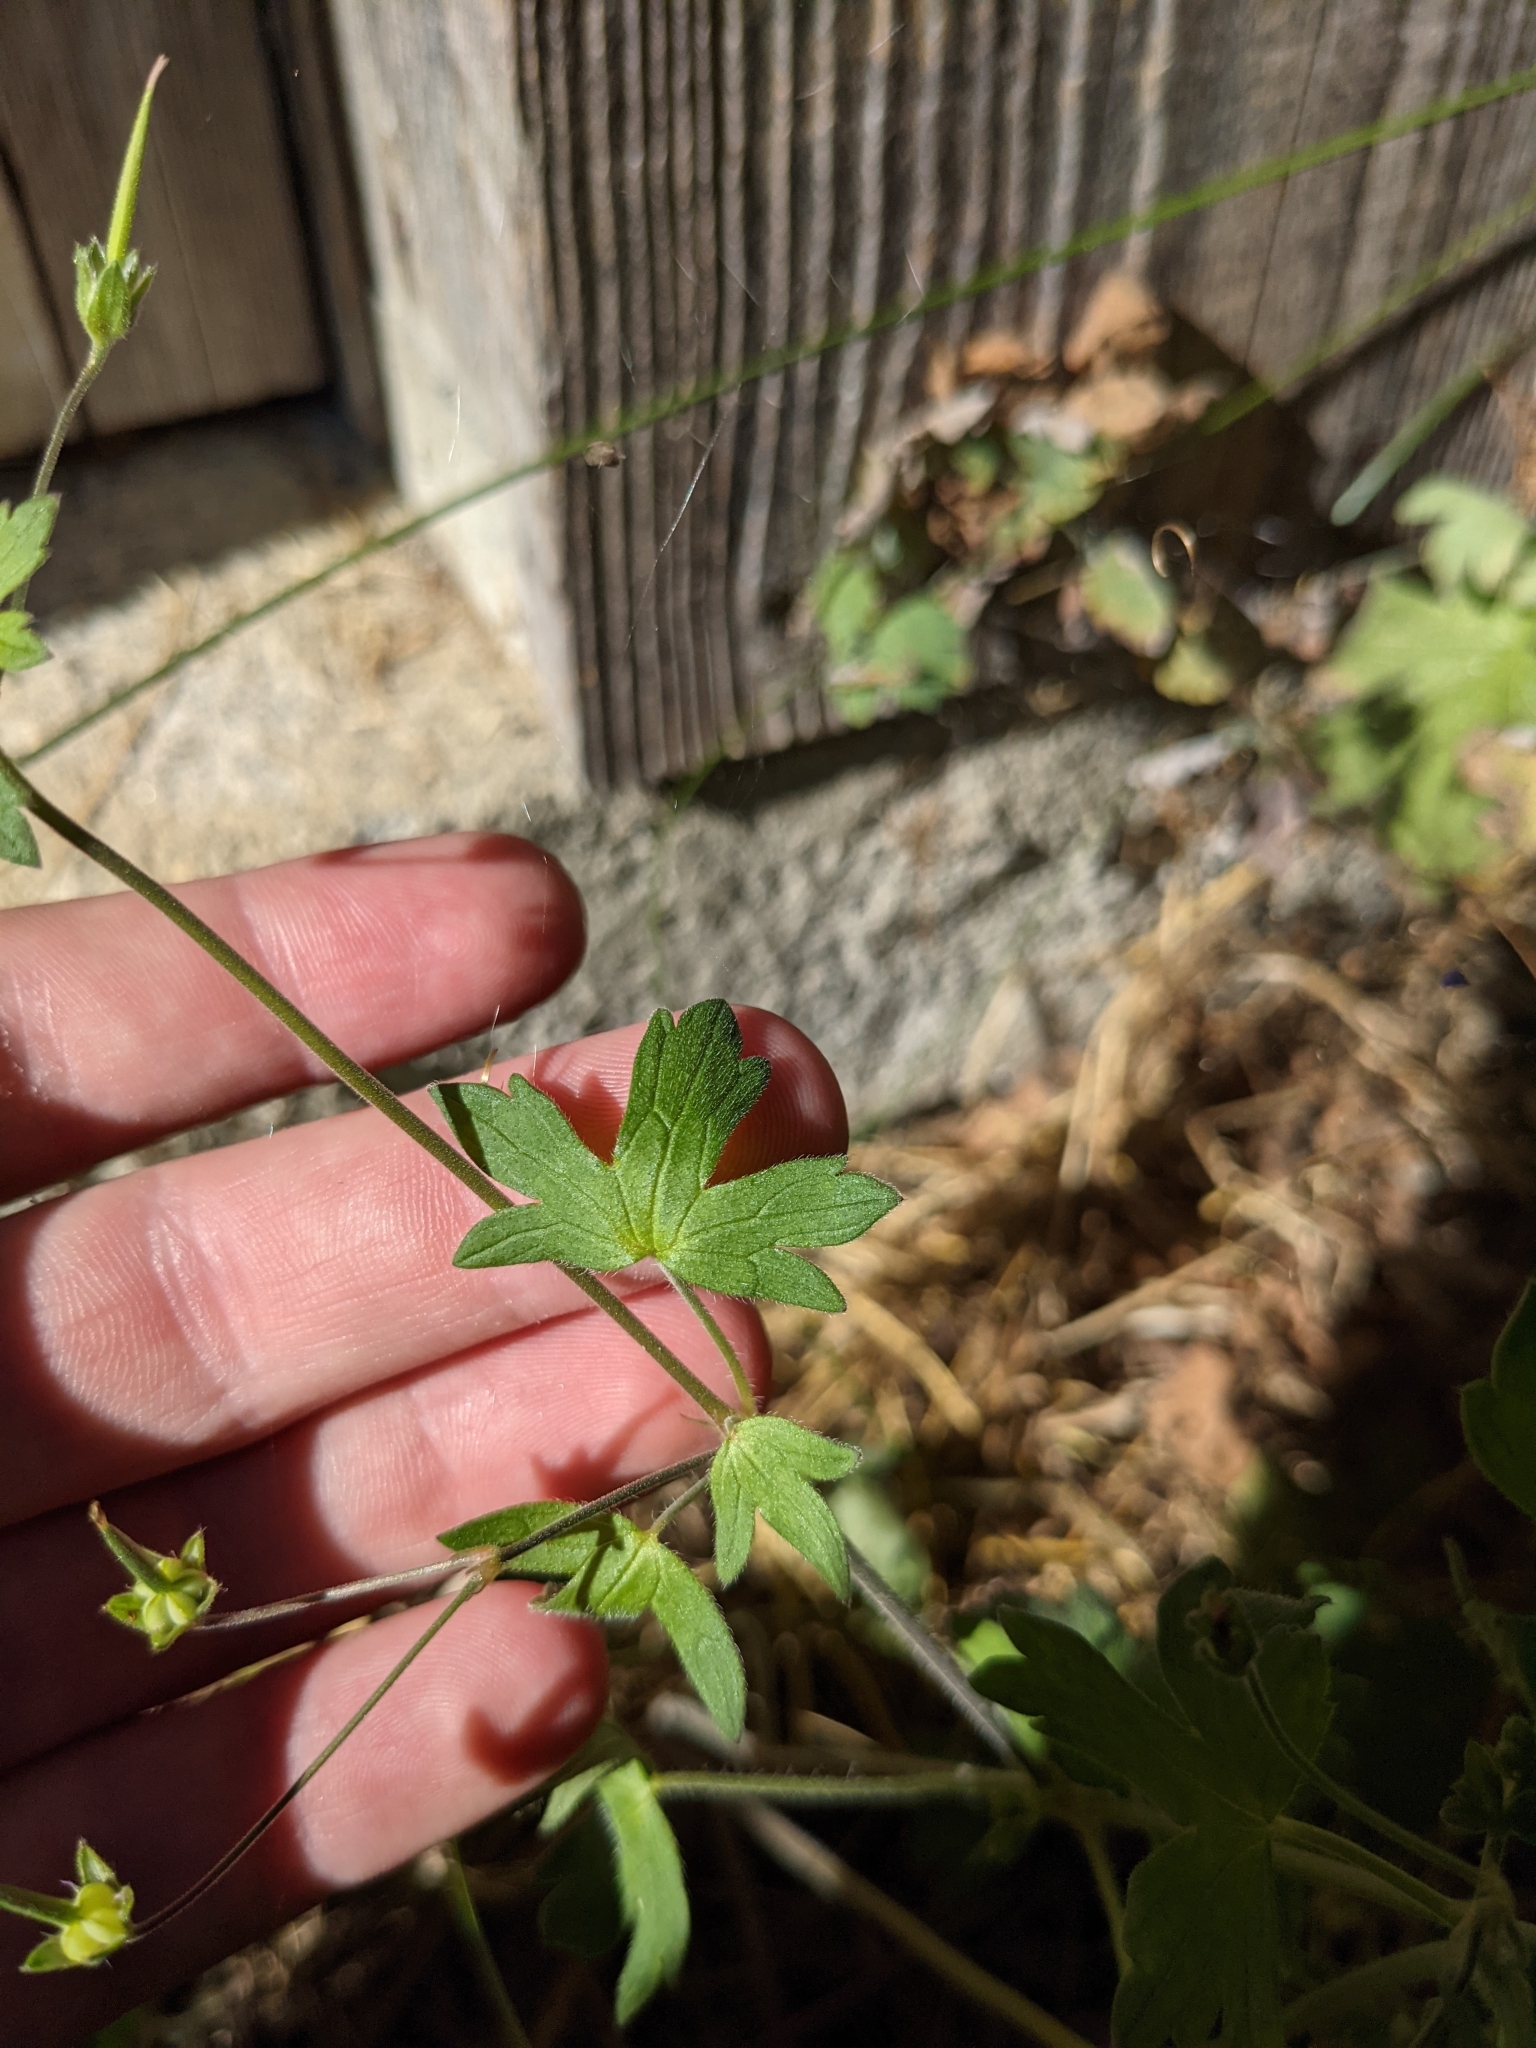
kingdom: Plantae
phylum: Tracheophyta
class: Magnoliopsida
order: Geraniales
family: Geraniaceae
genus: Geranium
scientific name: Geranium pyrenaicum
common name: Hedgerow crane's-bill
